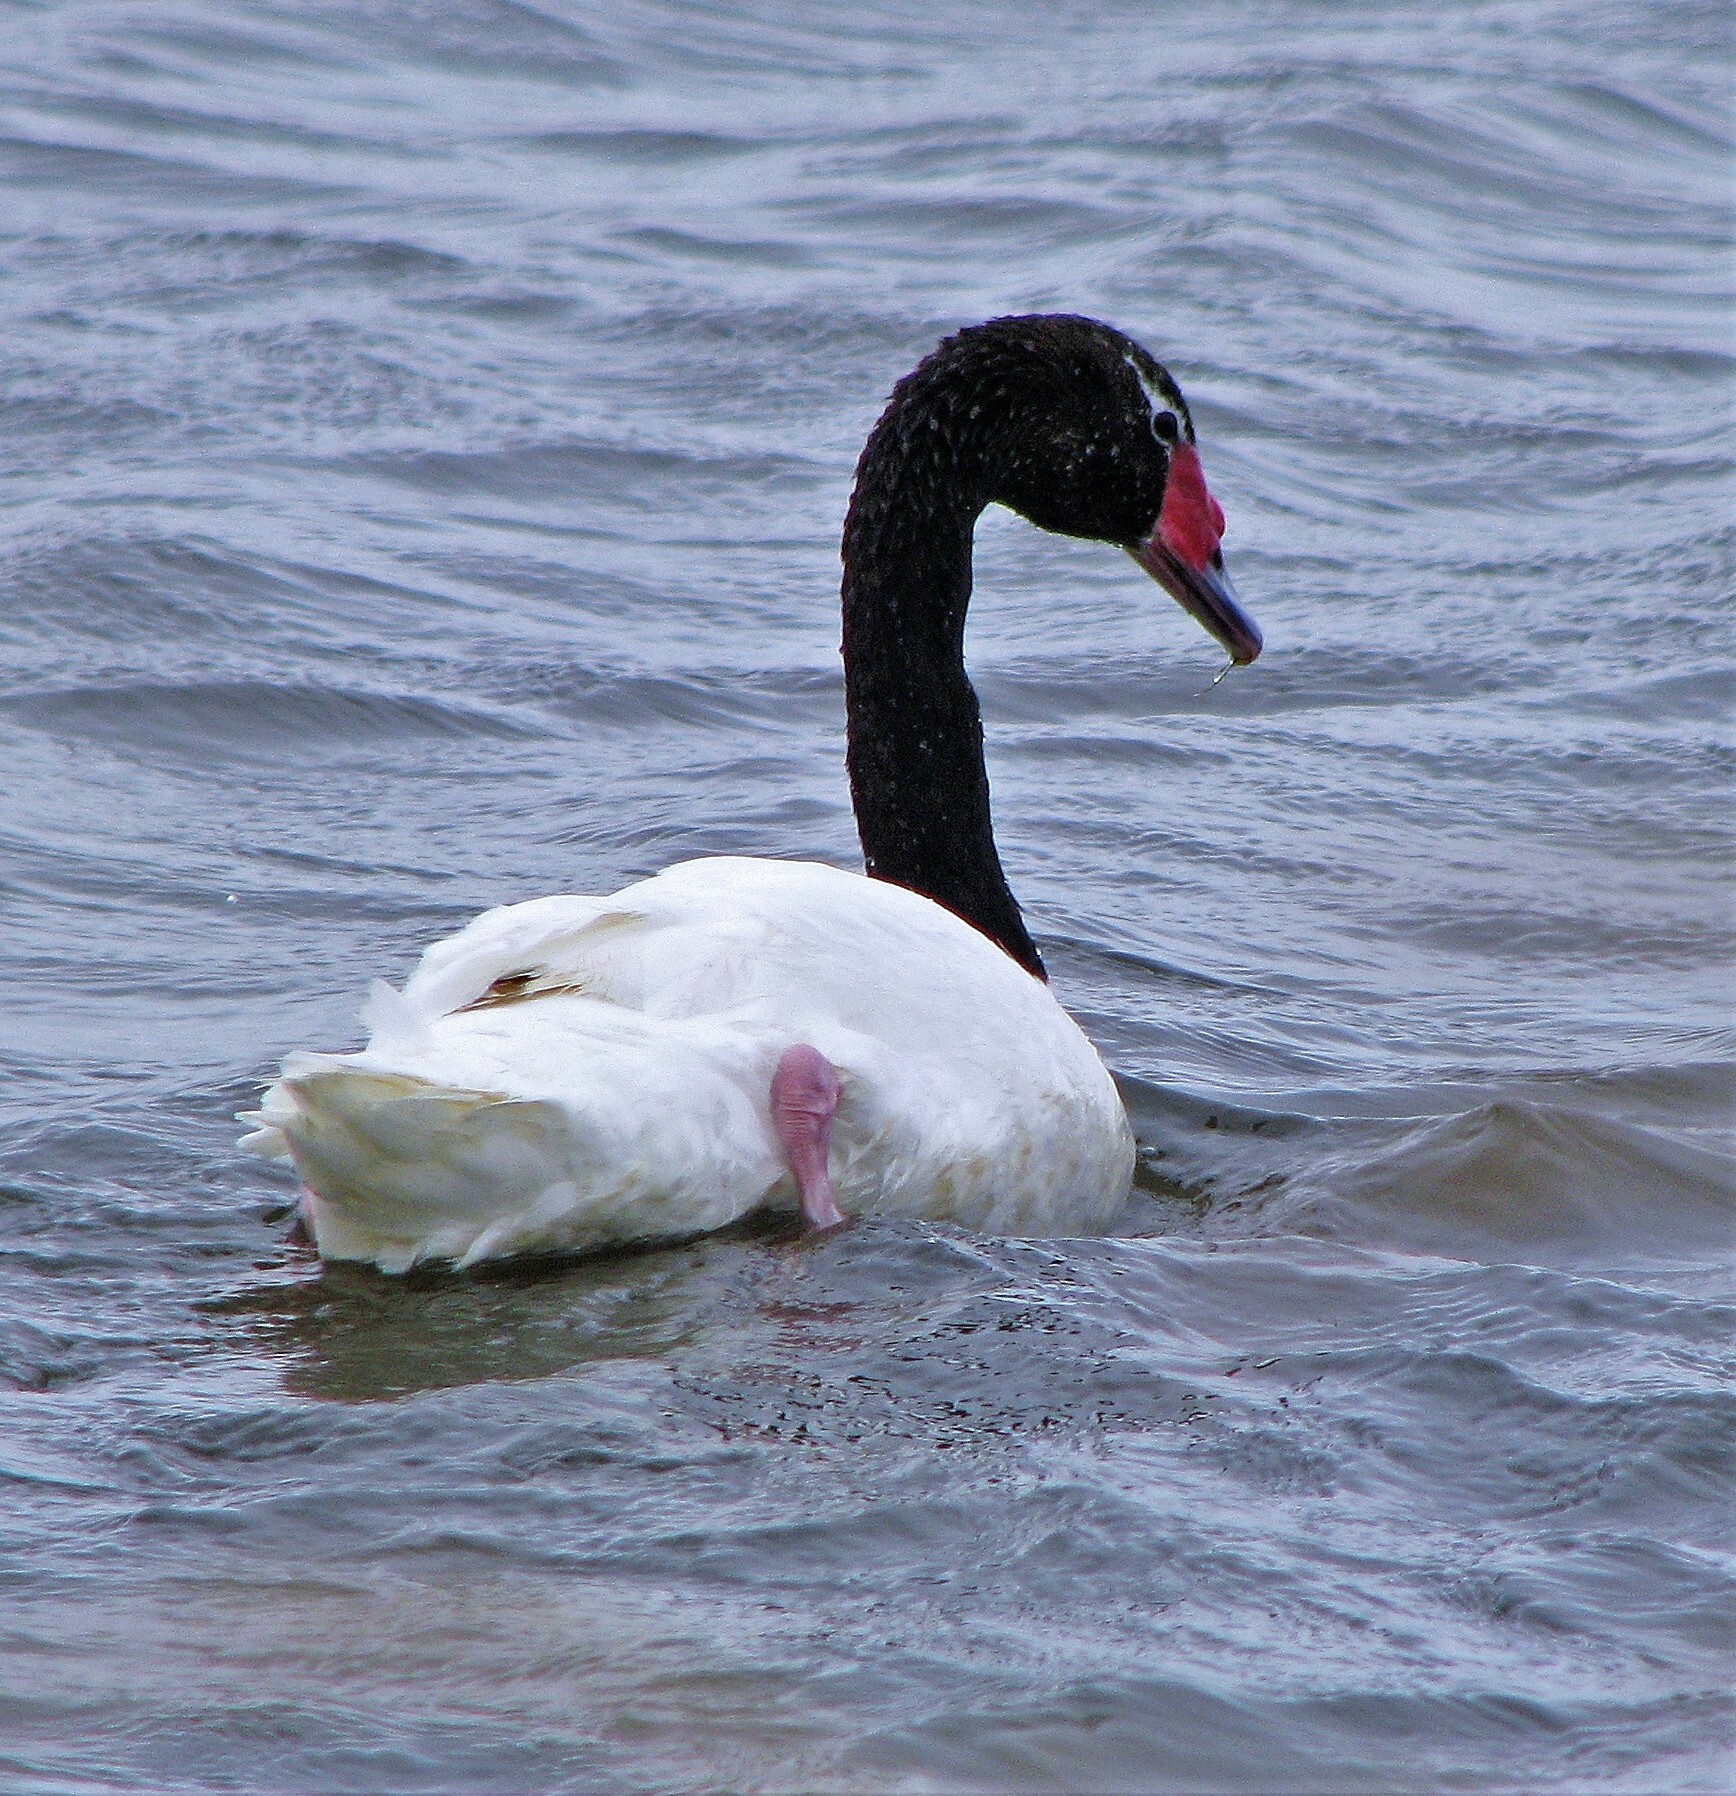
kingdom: Animalia
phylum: Chordata
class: Aves
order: Anseriformes
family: Anatidae
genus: Cygnus
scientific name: Cygnus melancoryphus
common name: Black-necked swan
